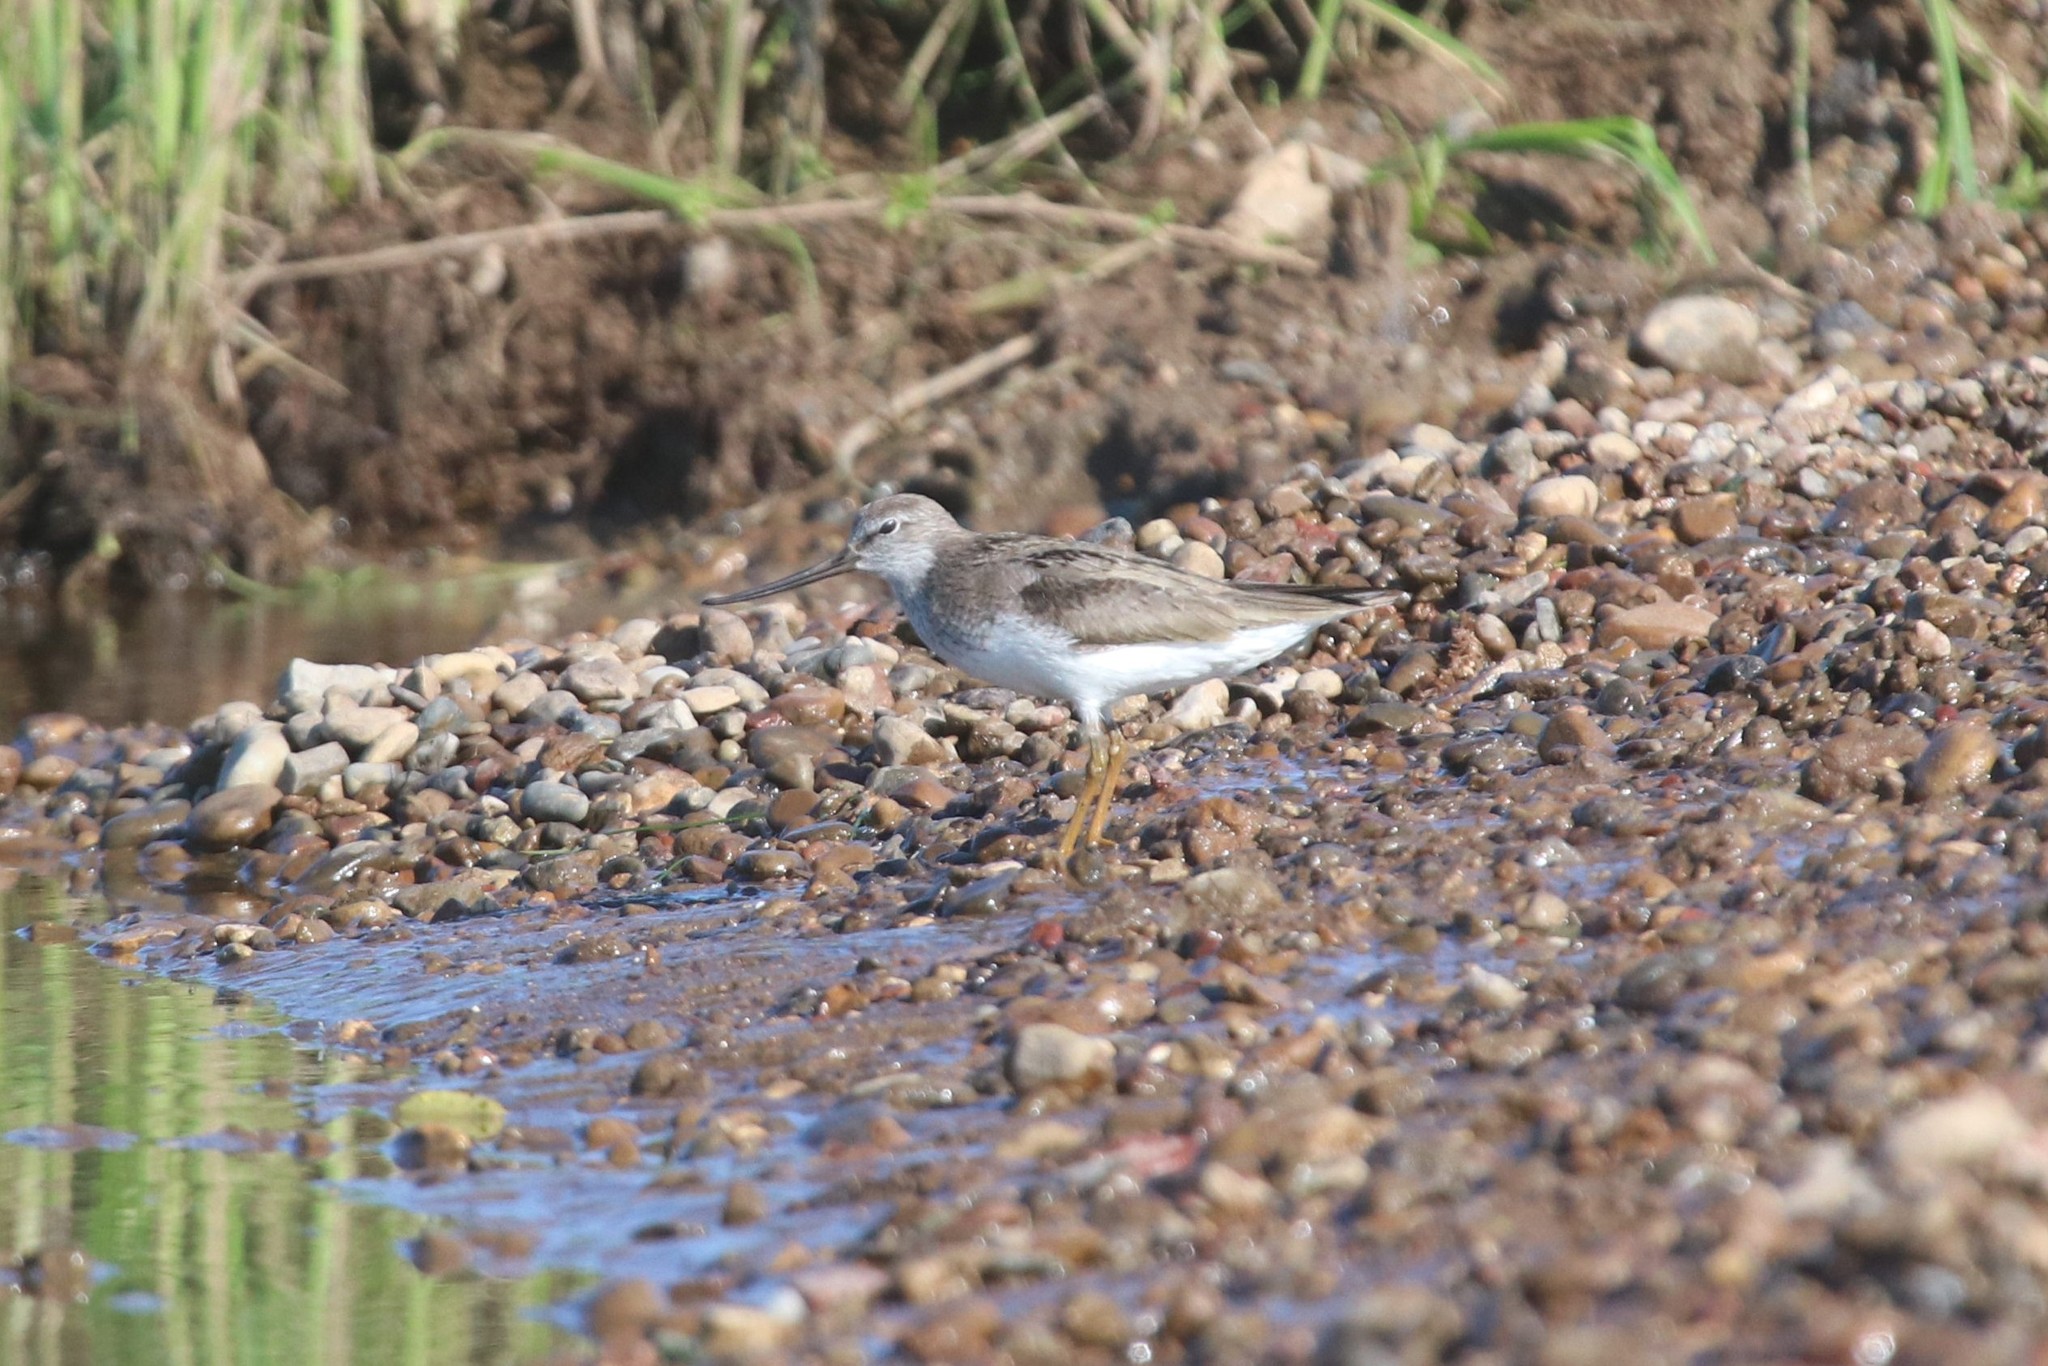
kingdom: Animalia
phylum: Chordata
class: Aves
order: Charadriiformes
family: Scolopacidae
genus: Xenus
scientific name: Xenus cinereus
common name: Terek sandpiper
